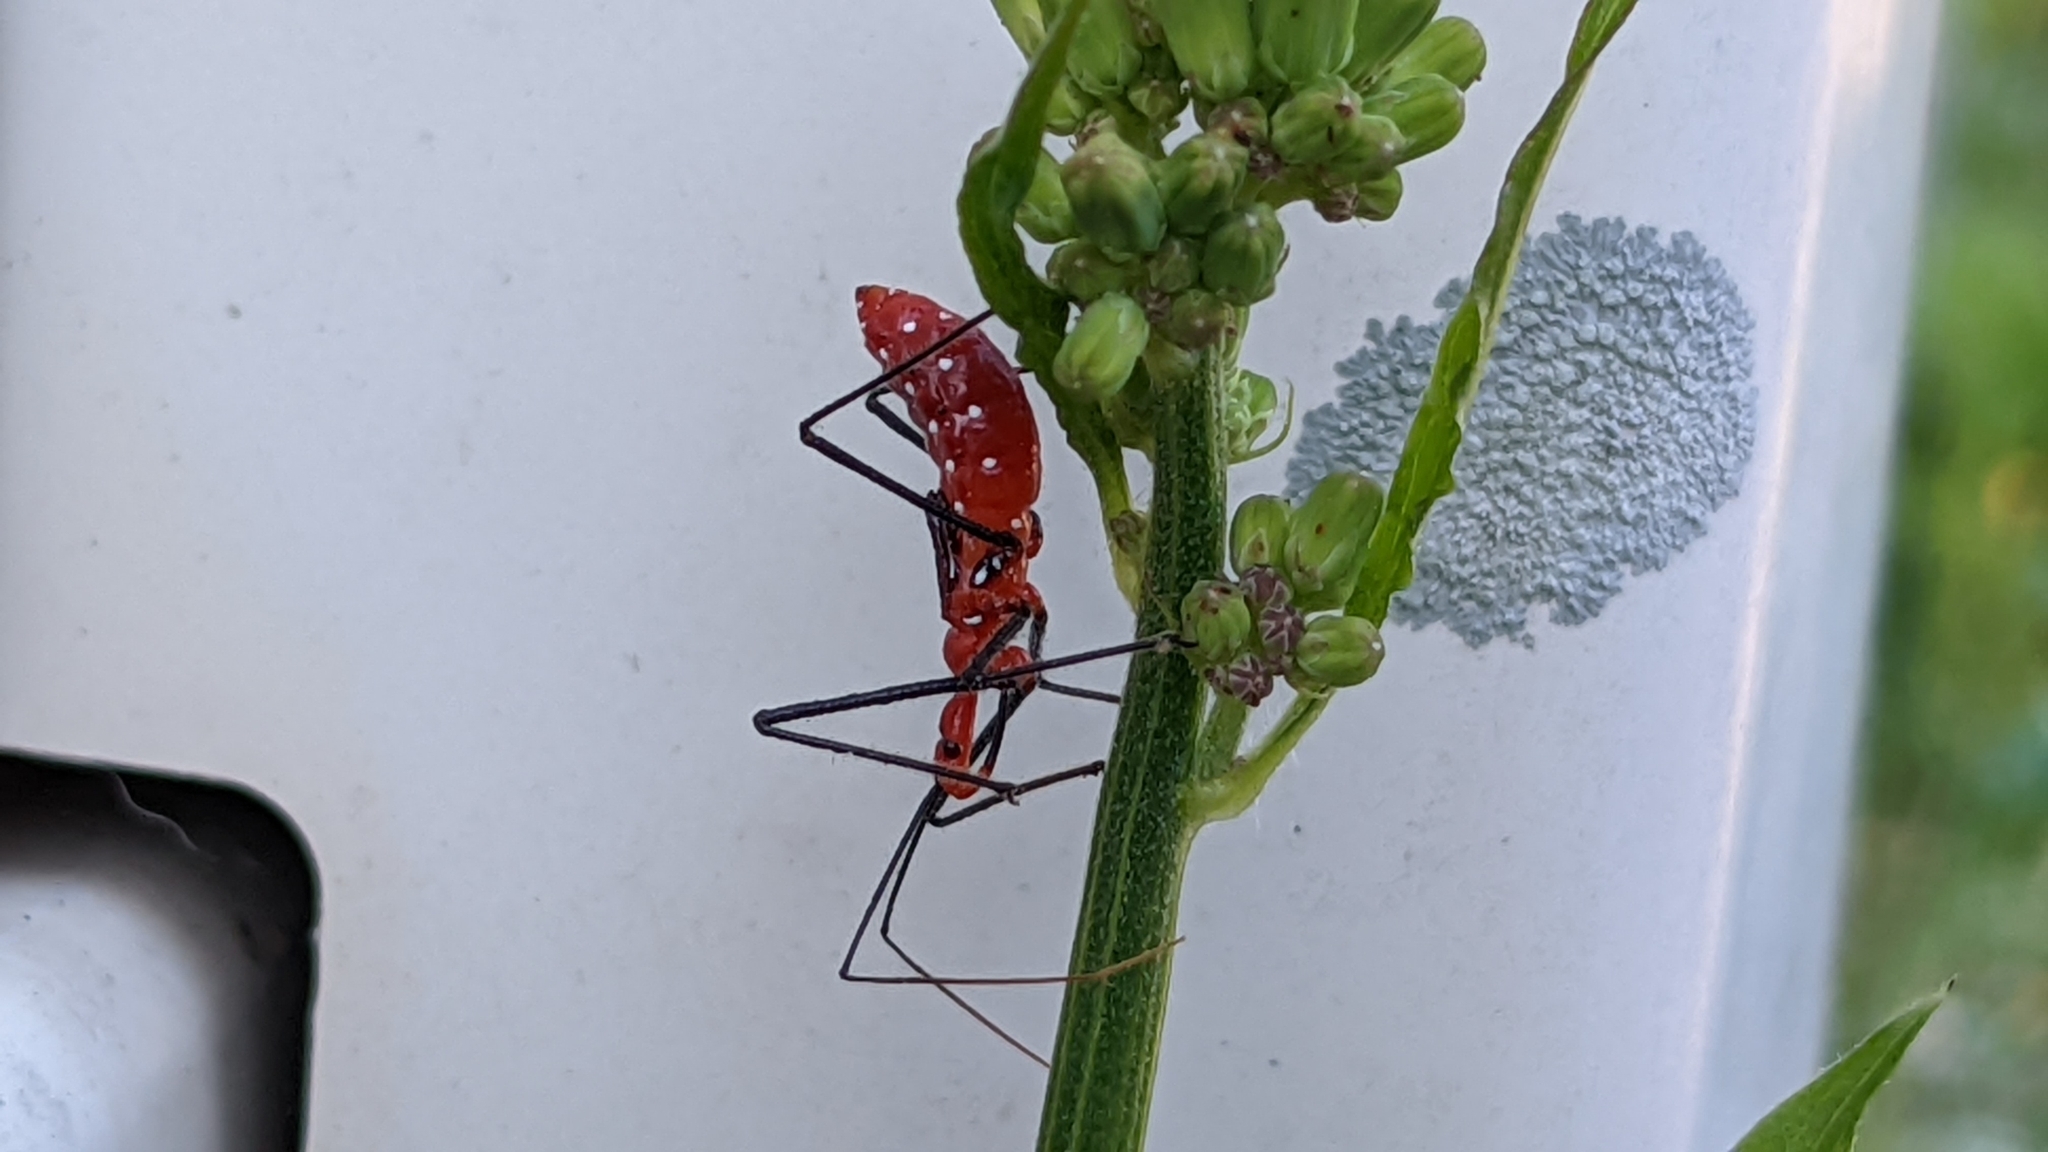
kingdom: Animalia
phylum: Arthropoda
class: Insecta
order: Hemiptera
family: Reduviidae
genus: Zelus
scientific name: Zelus longipes
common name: Milkweed assassin bug
